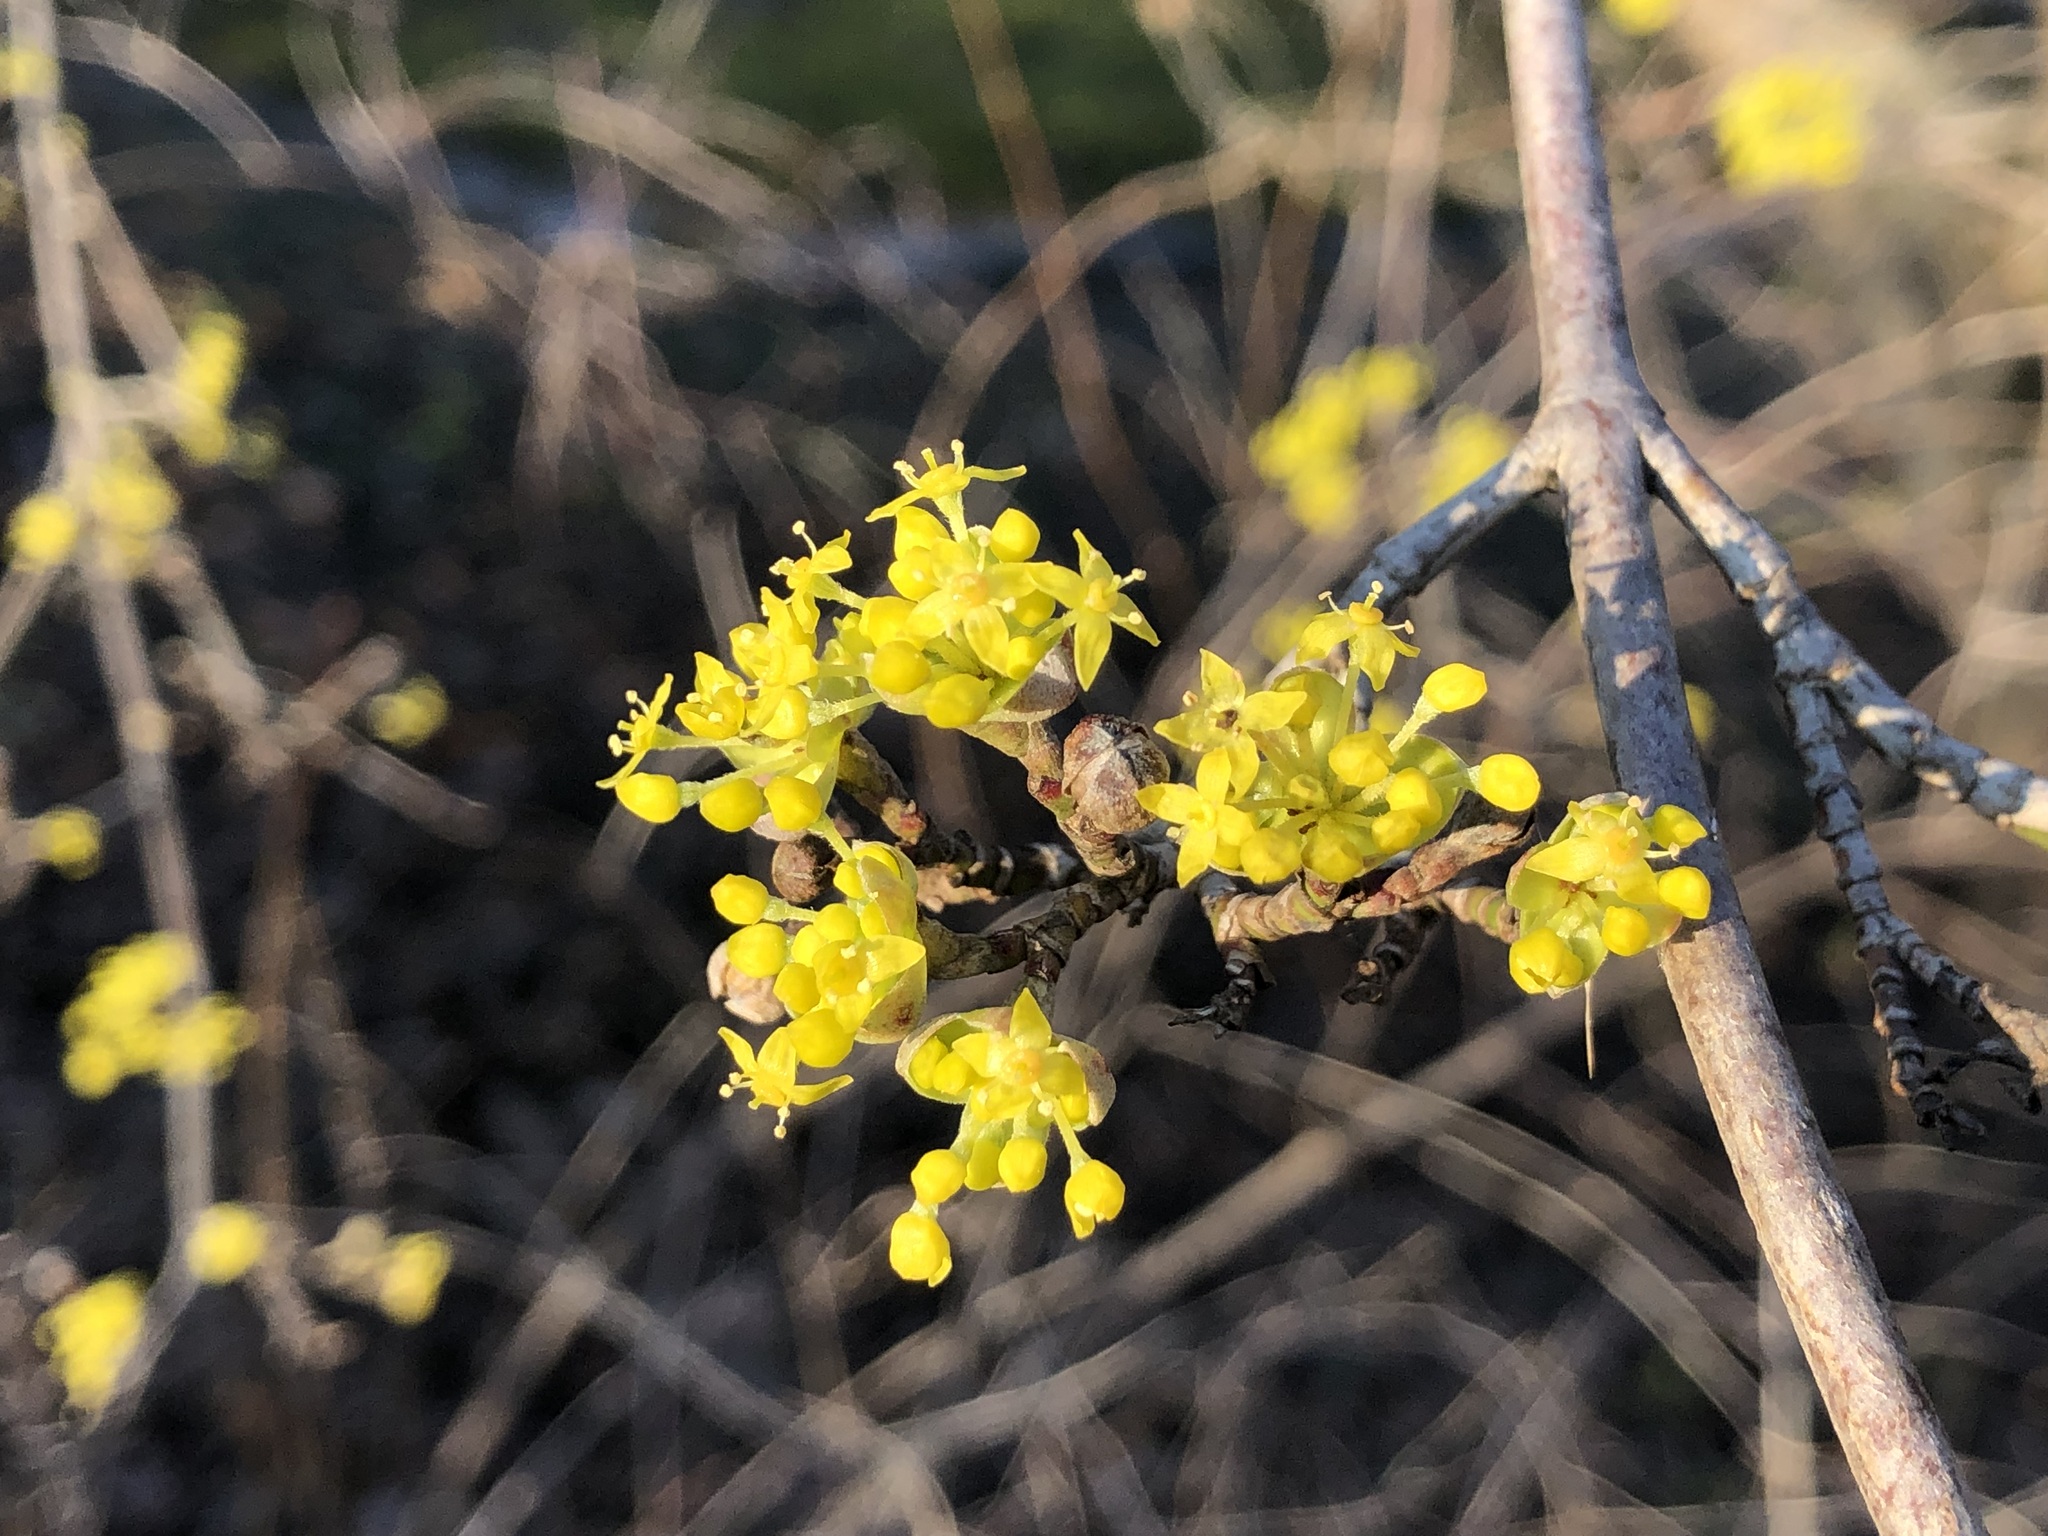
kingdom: Plantae
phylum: Tracheophyta
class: Magnoliopsida
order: Cornales
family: Cornaceae
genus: Cornus
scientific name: Cornus mas
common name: Cornelian-cherry
